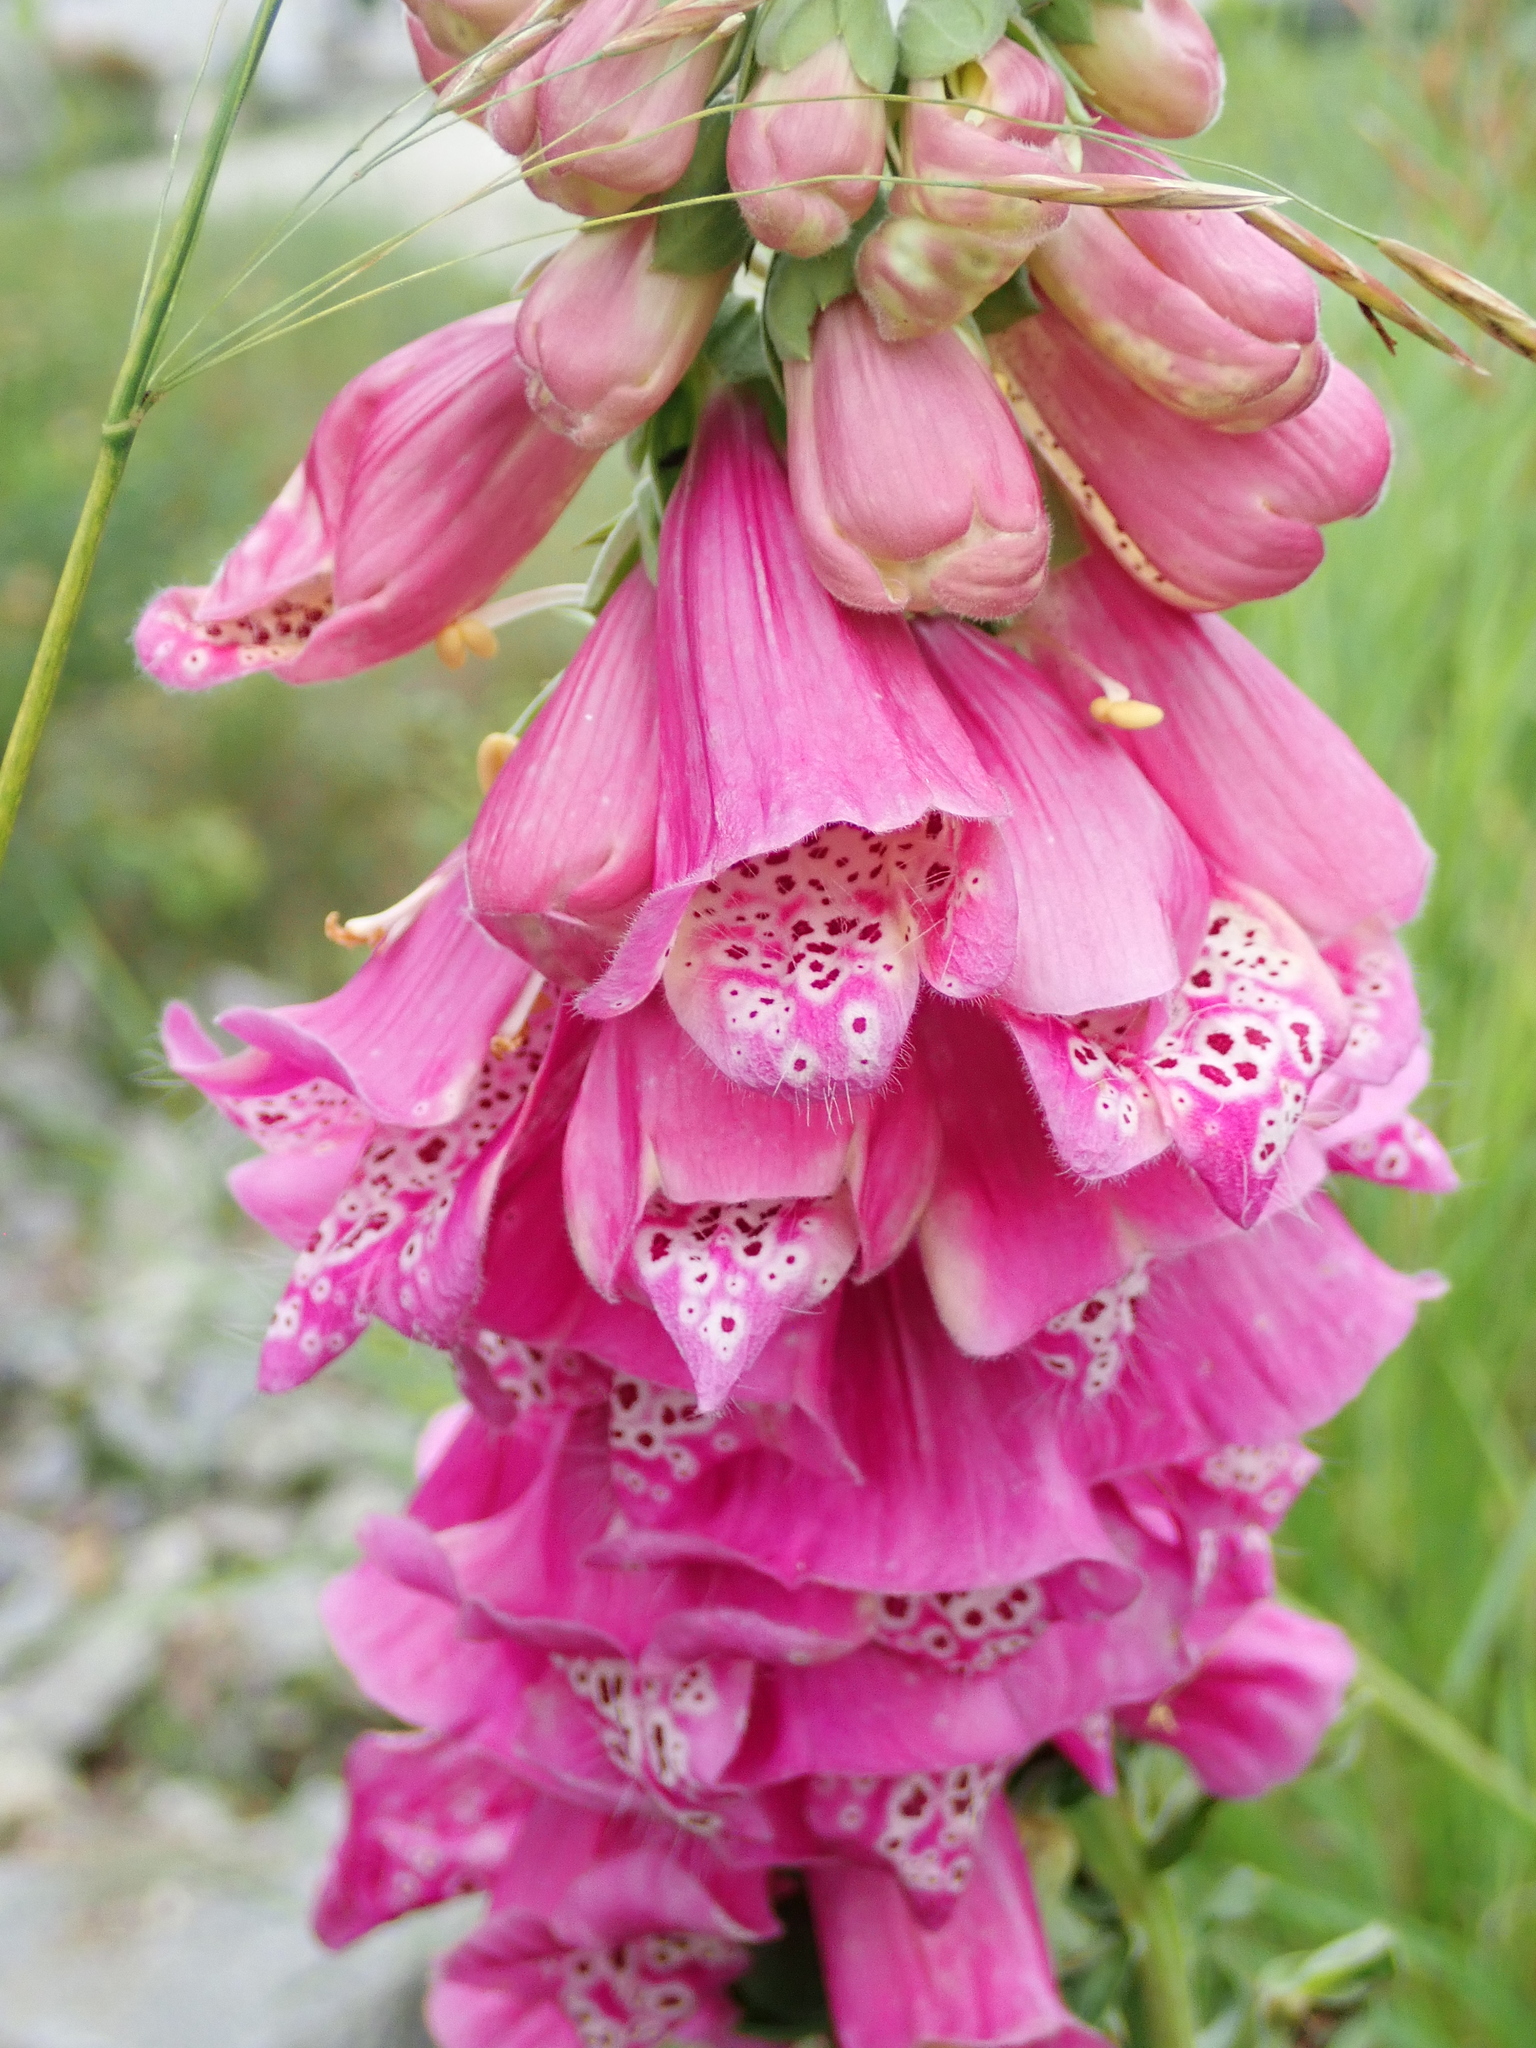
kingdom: Plantae
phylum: Tracheophyta
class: Magnoliopsida
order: Lamiales
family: Plantaginaceae
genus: Digitalis
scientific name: Digitalis purpurea
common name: Foxglove
